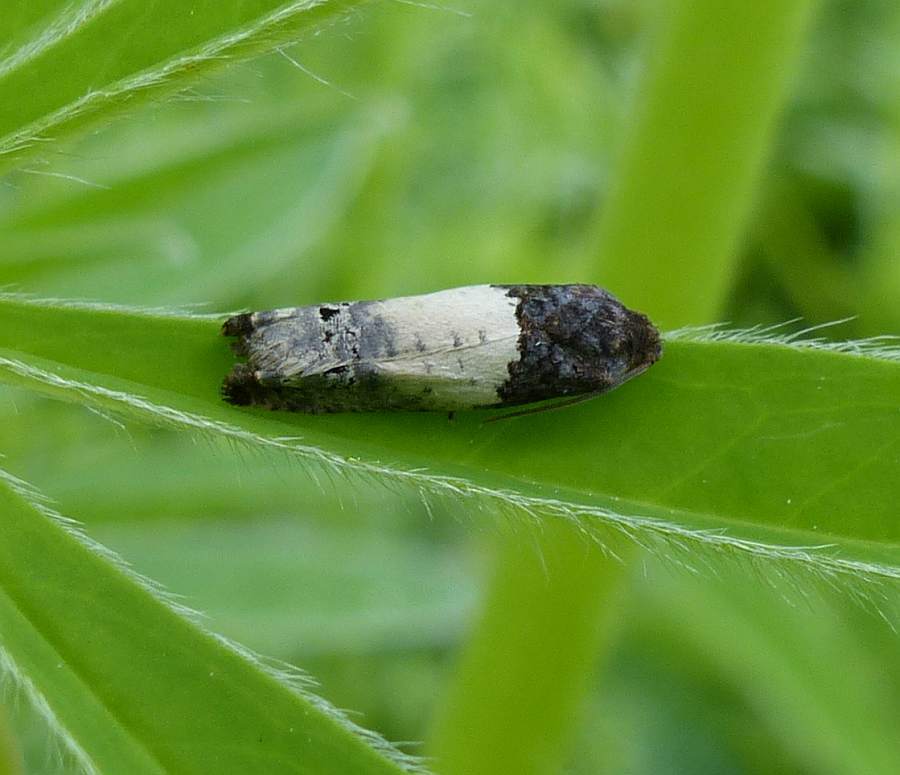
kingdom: Animalia
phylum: Arthropoda
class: Insecta
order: Lepidoptera
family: Tortricidae
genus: Epiblema
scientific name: Epiblema scudderiana
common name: Goldenrod gall moth
